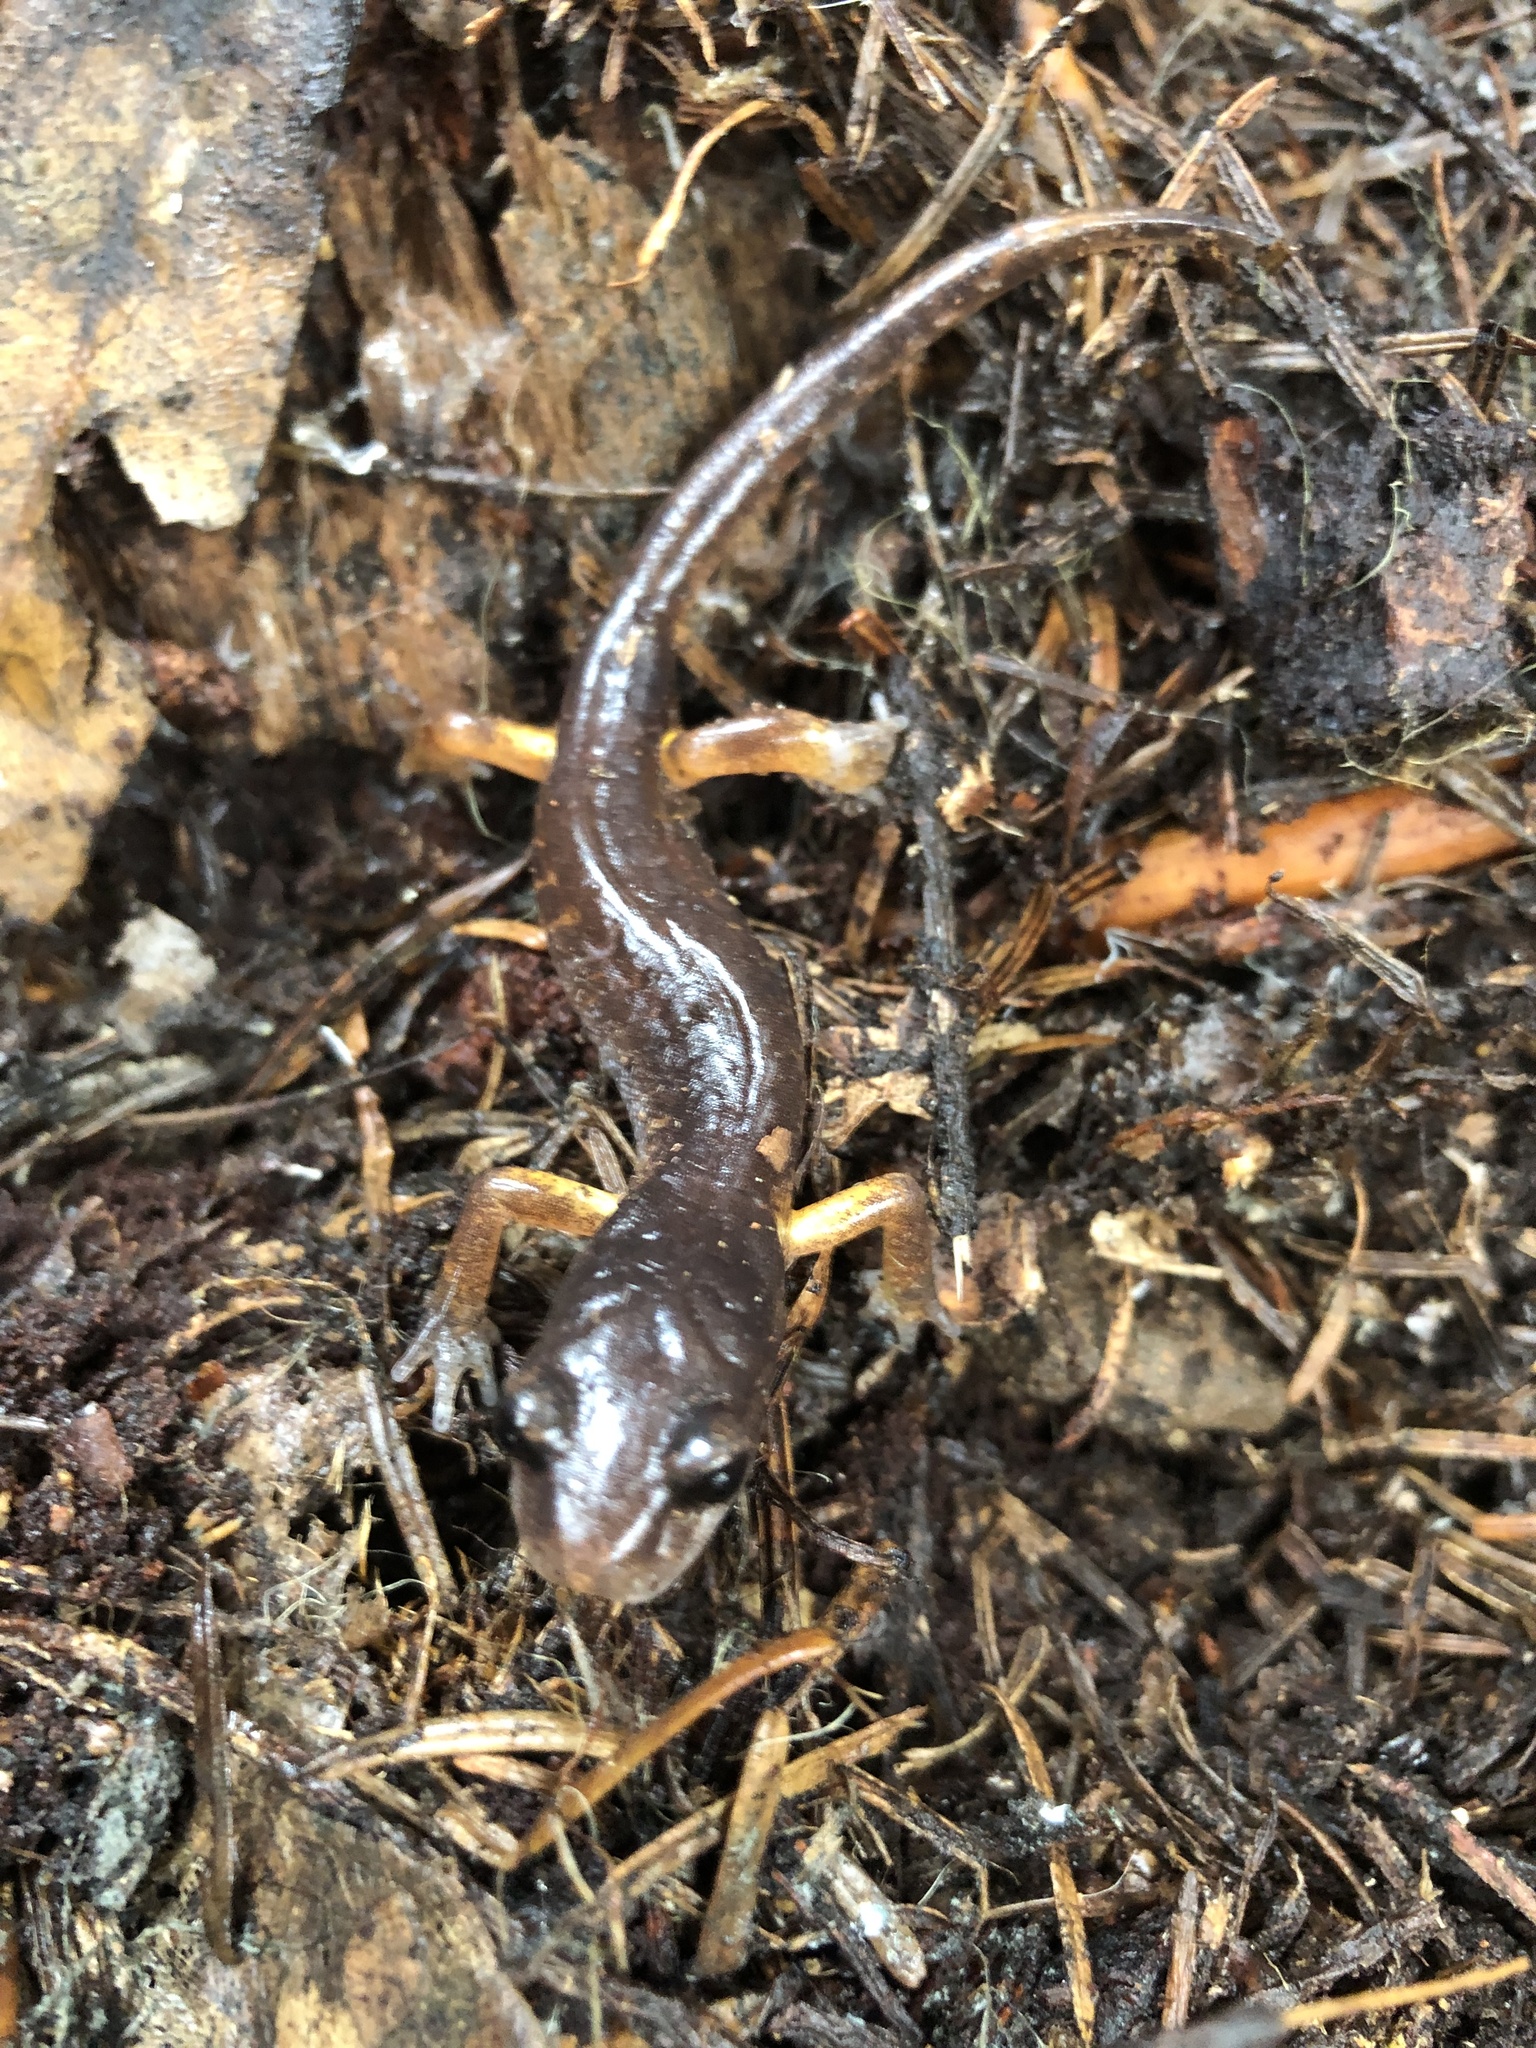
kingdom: Animalia
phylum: Chordata
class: Amphibia
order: Caudata
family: Plethodontidae
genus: Ensatina
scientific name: Ensatina eschscholtzii
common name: Ensatina
